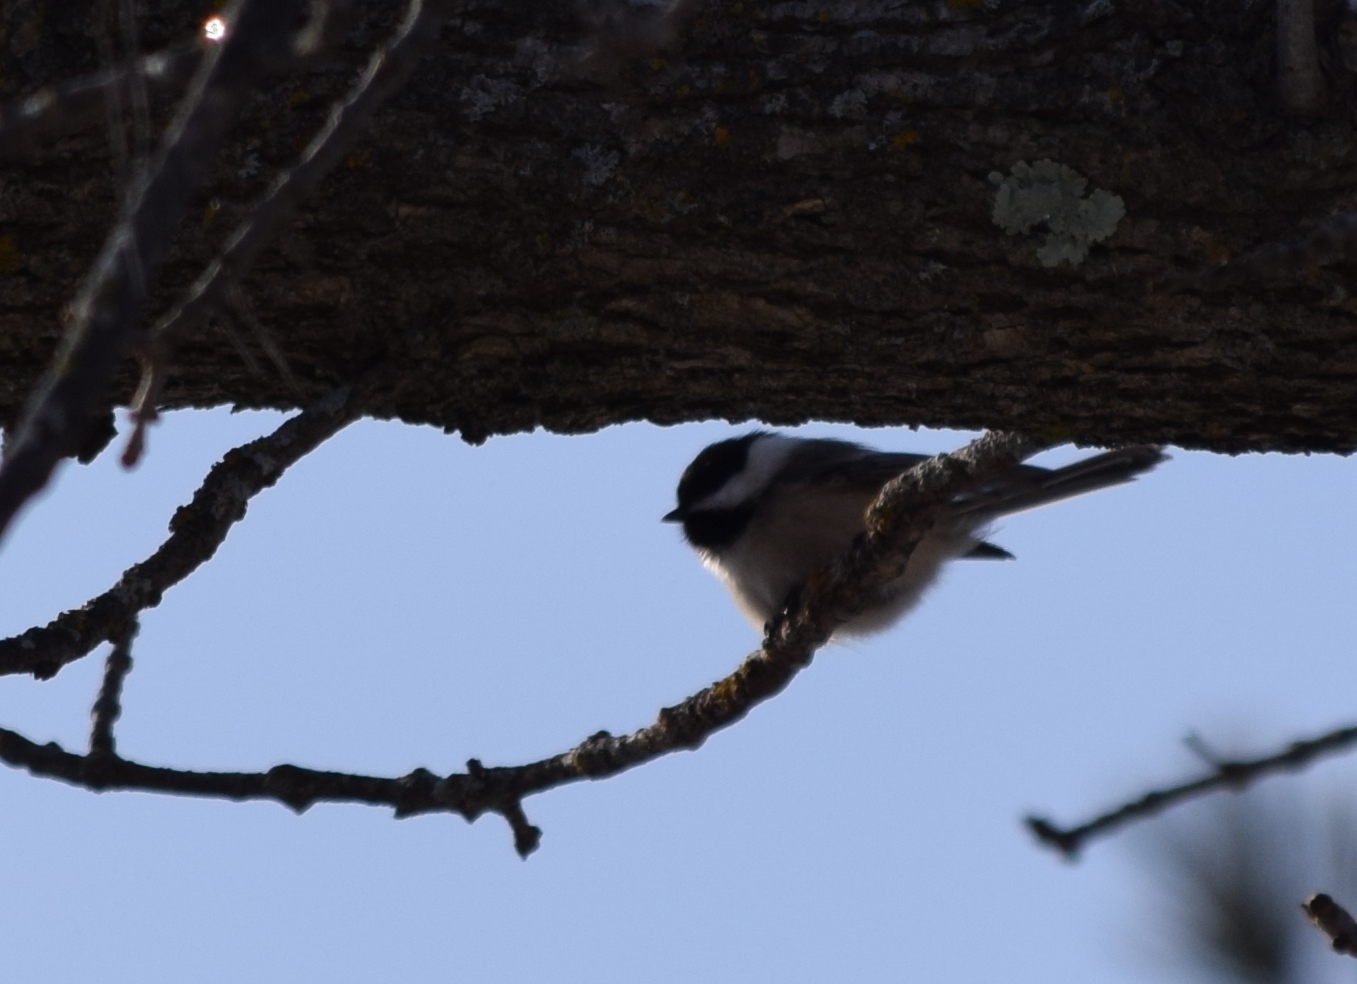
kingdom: Animalia
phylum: Chordata
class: Aves
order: Passeriformes
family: Paridae
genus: Poecile
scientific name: Poecile atricapillus
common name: Black-capped chickadee
